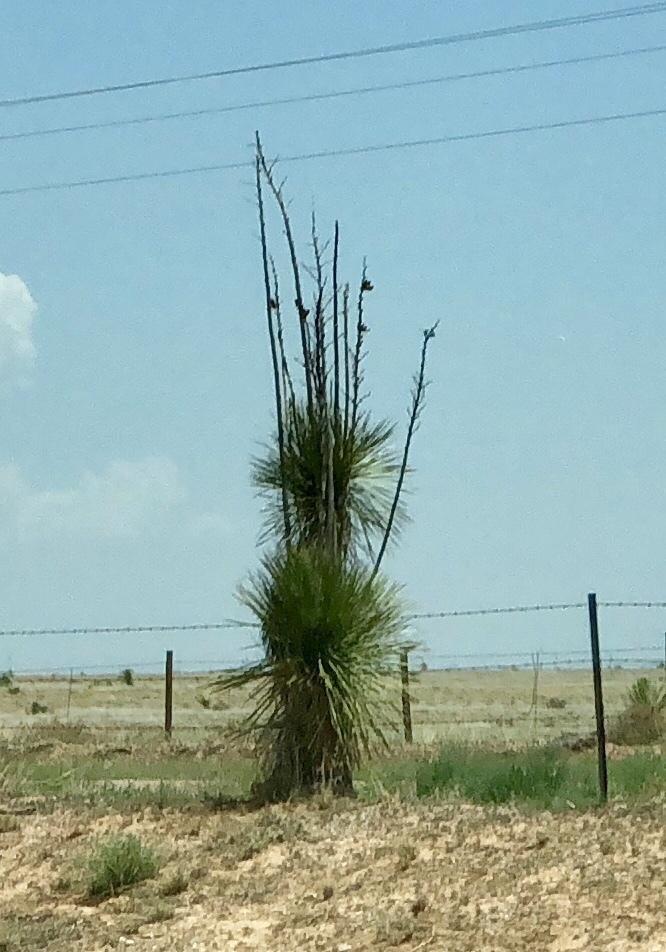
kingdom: Plantae
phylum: Tracheophyta
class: Liliopsida
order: Asparagales
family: Asparagaceae
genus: Yucca
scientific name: Yucca elata
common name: Palmella
